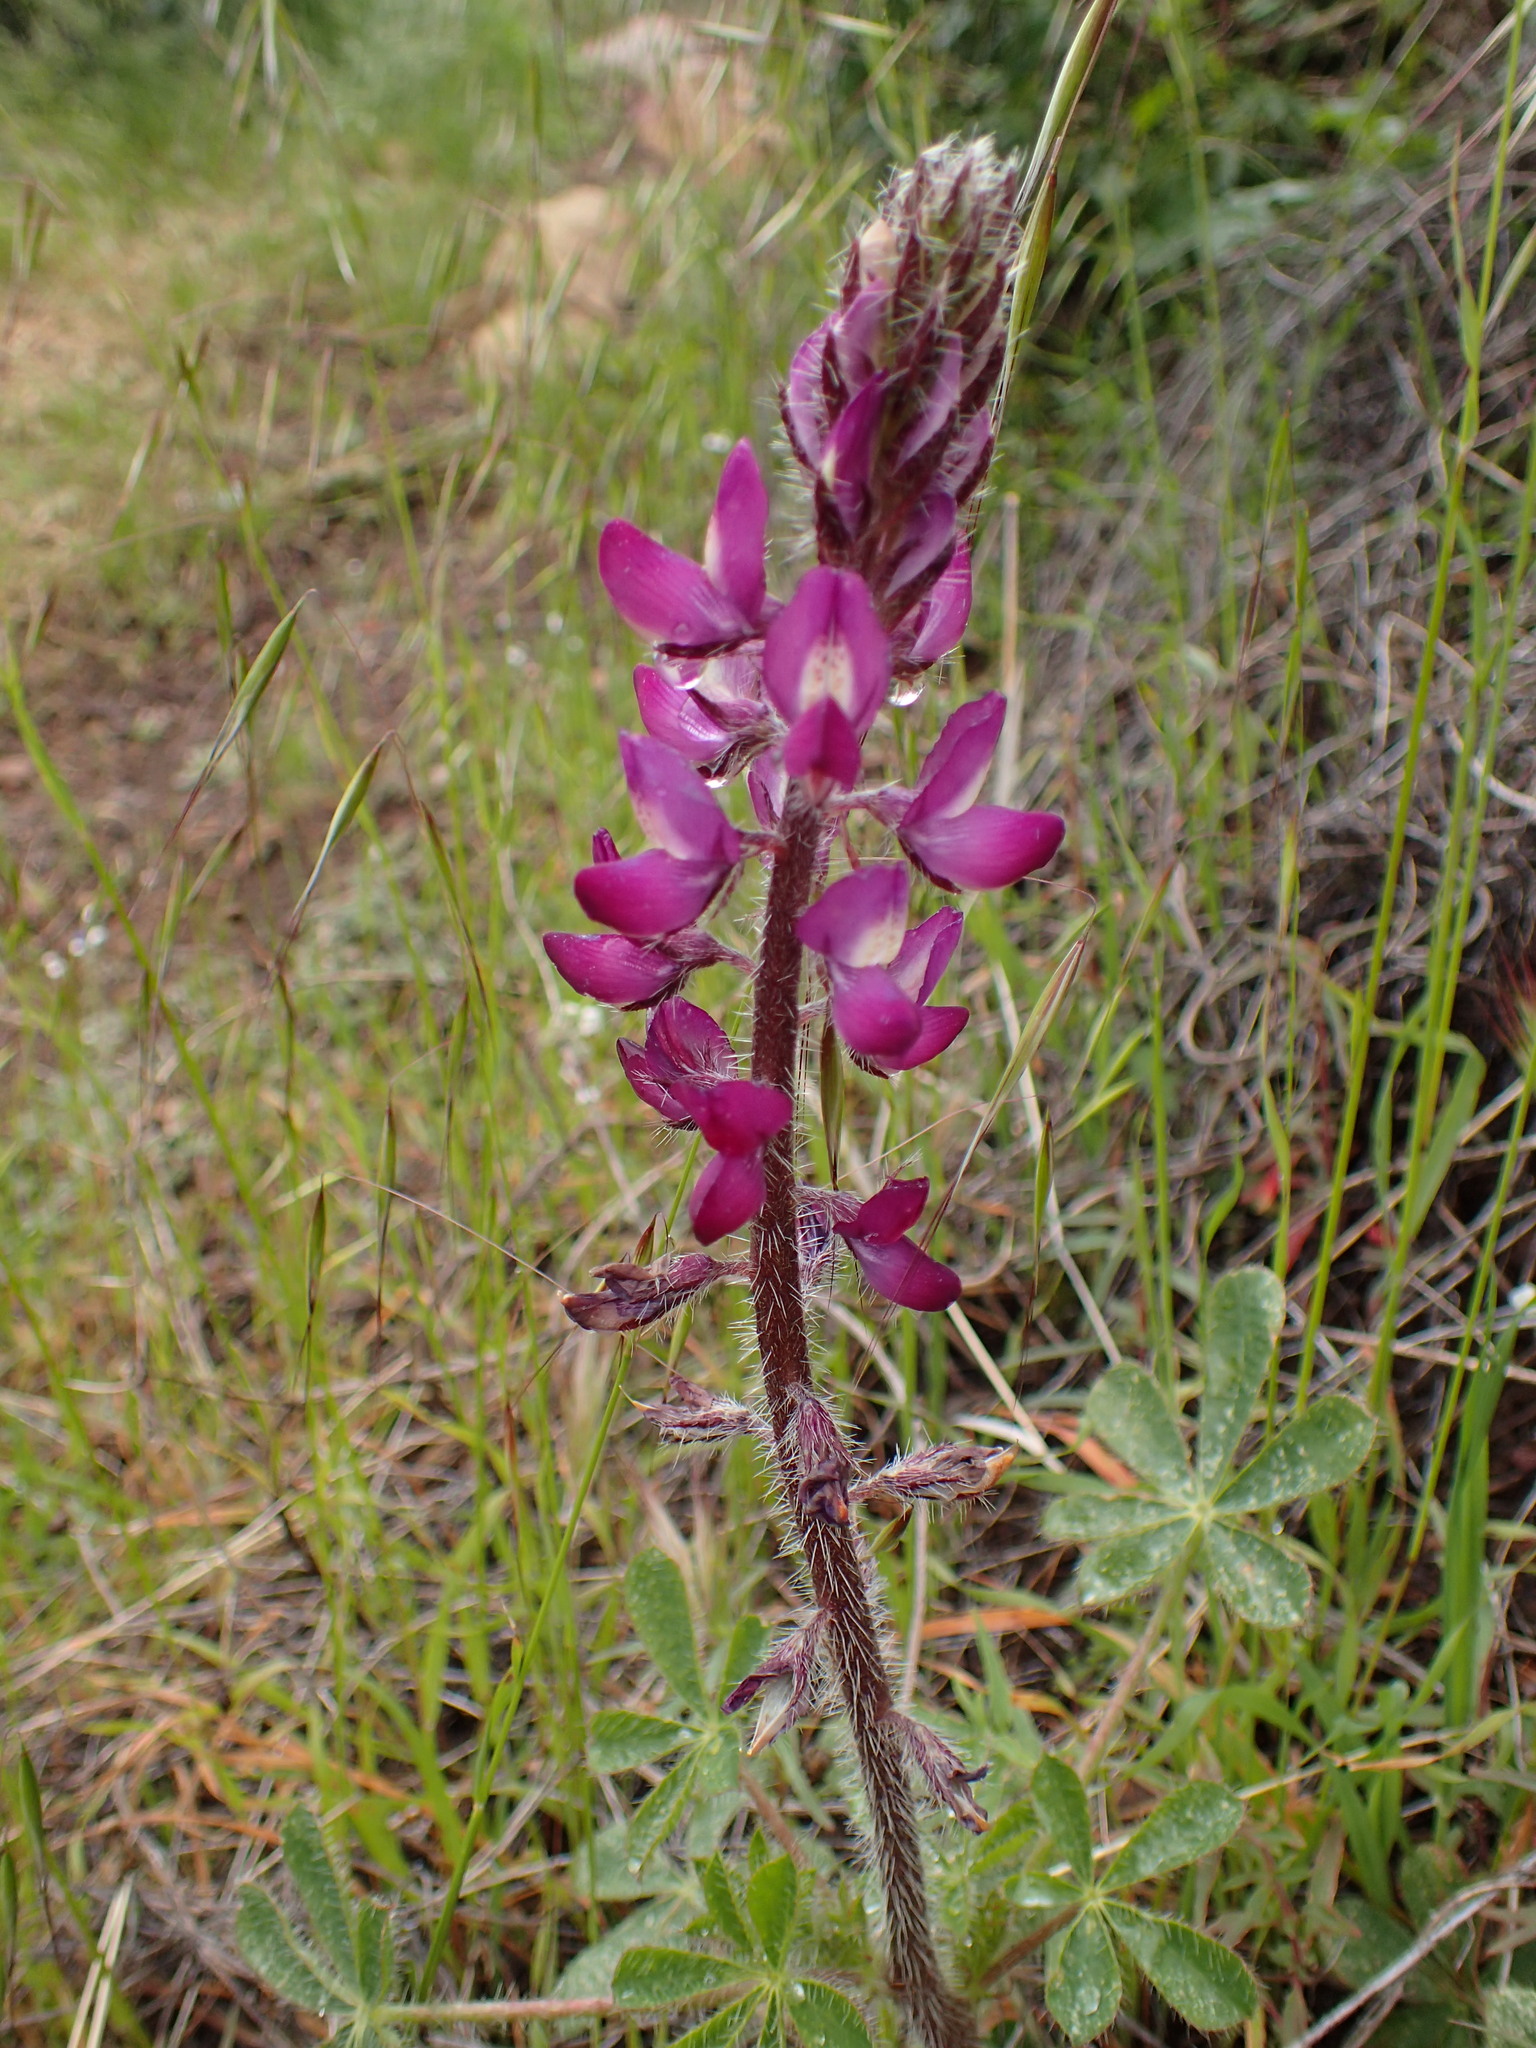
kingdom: Plantae
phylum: Tracheophyta
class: Magnoliopsida
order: Fabales
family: Fabaceae
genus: Lupinus
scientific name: Lupinus hirsutissimus
